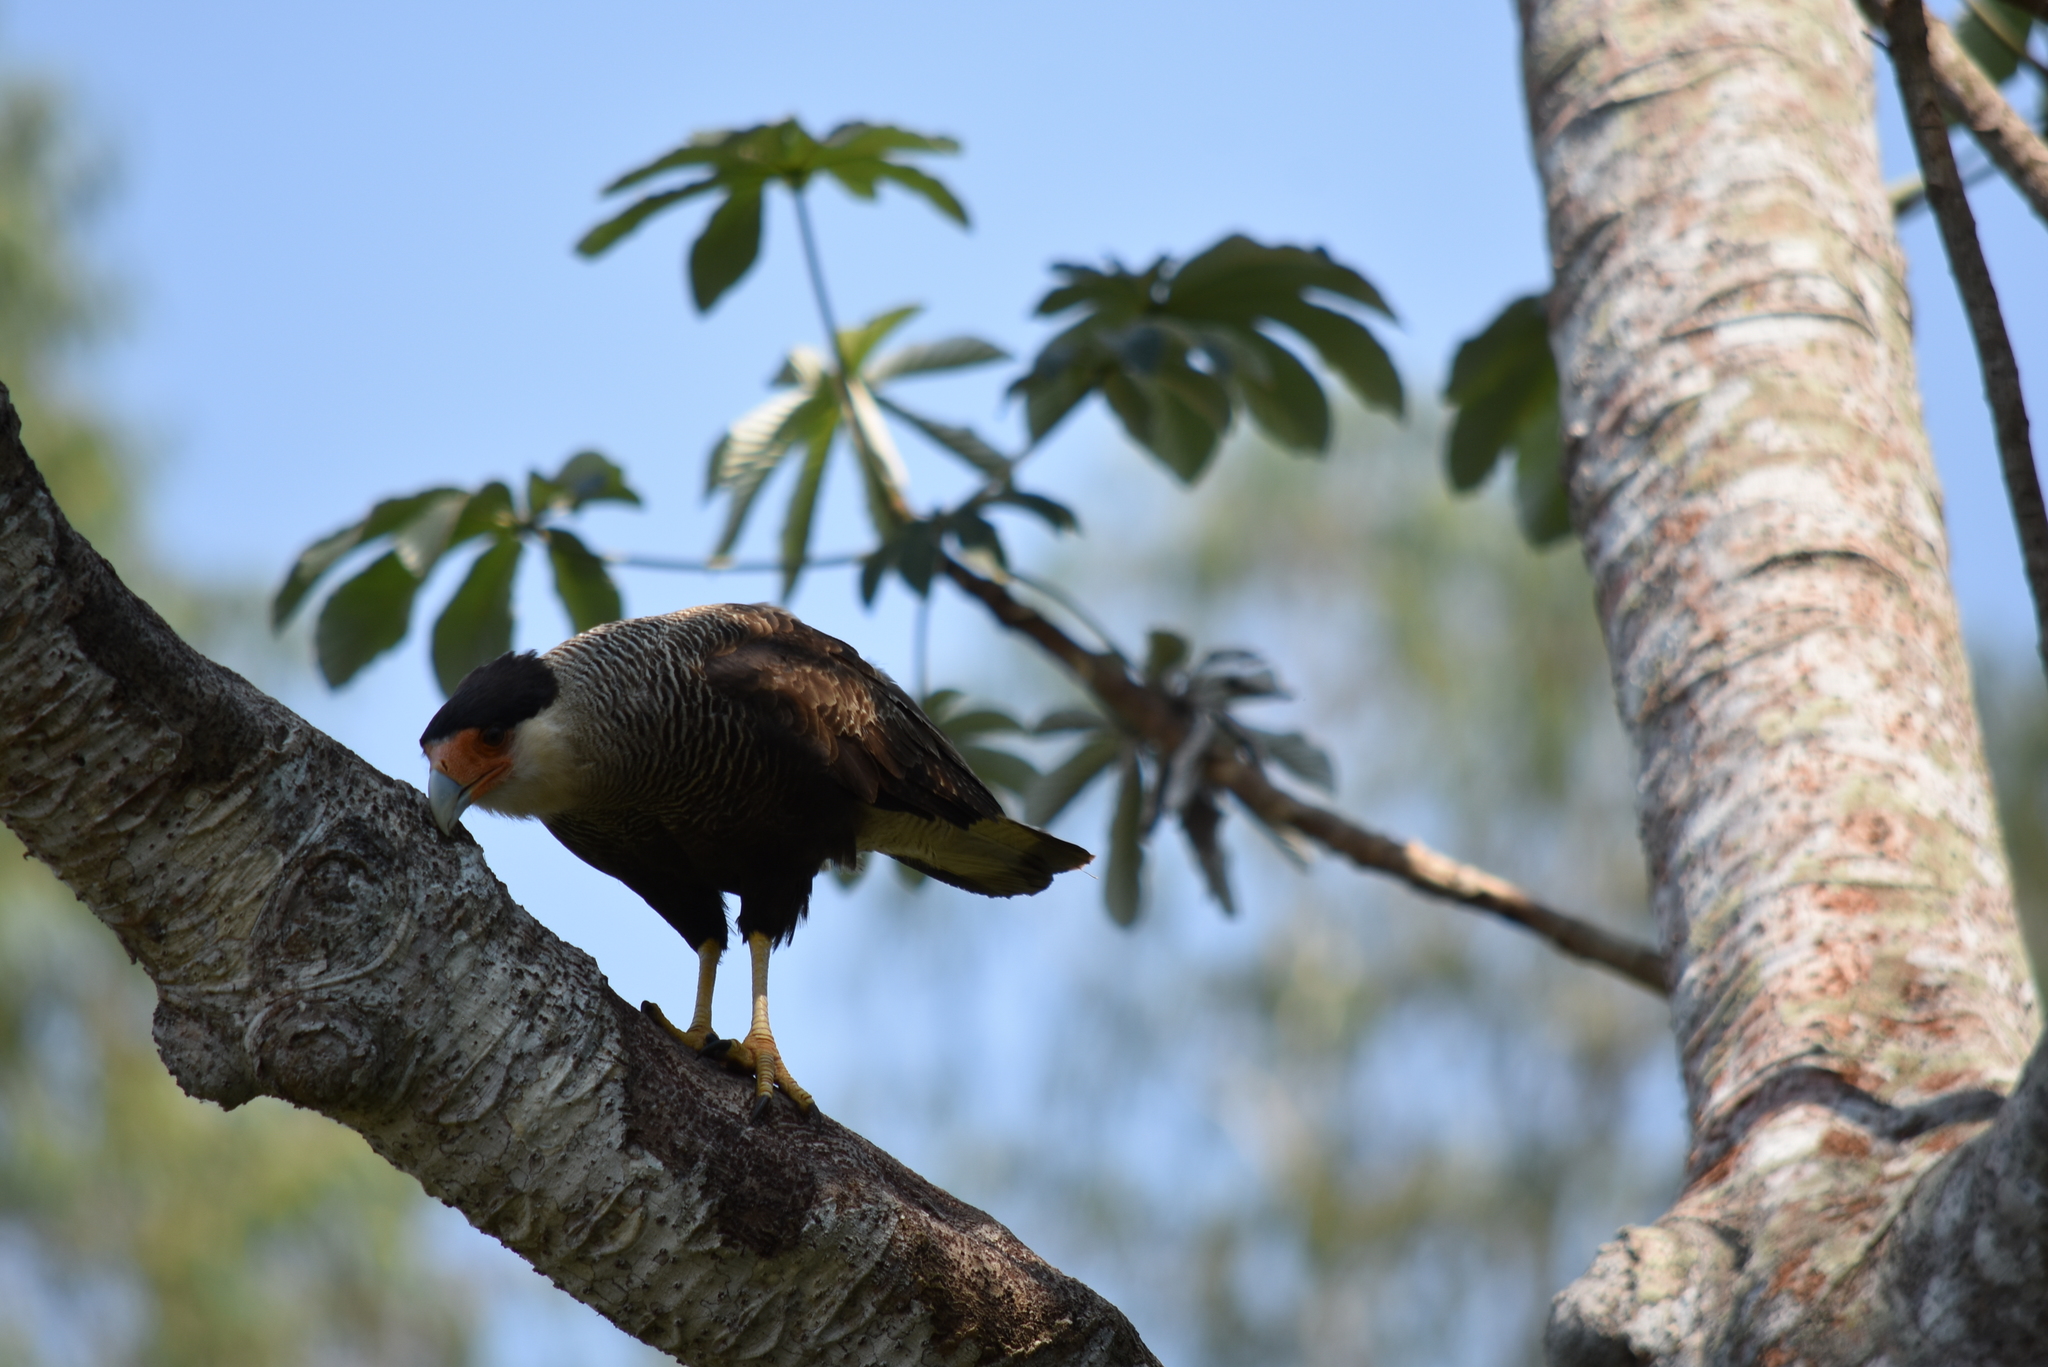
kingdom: Animalia
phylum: Chordata
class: Aves
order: Falconiformes
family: Falconidae
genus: Caracara
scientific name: Caracara plancus
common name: Southern caracara
